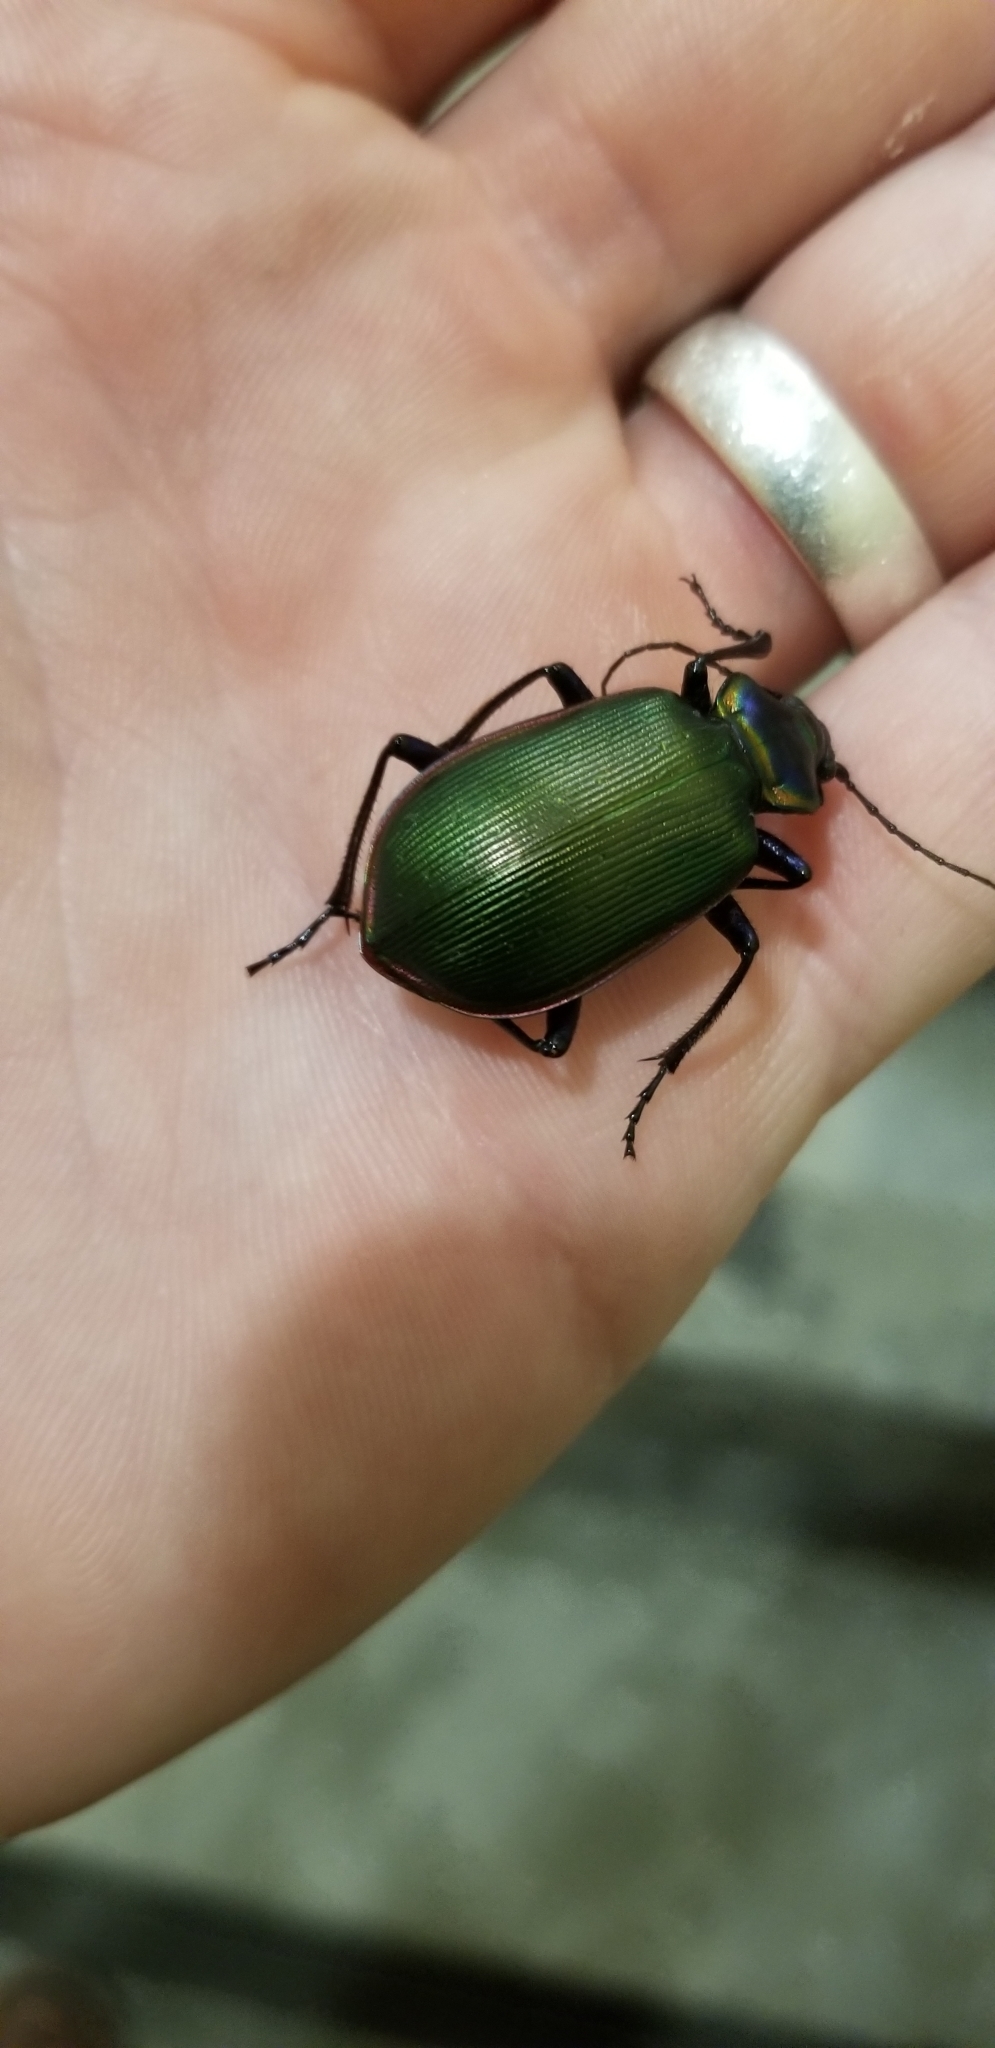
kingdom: Animalia
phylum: Arthropoda
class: Insecta
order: Coleoptera
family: Carabidae
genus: Calosoma
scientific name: Calosoma scrutator
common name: Fiery searcher beetle
